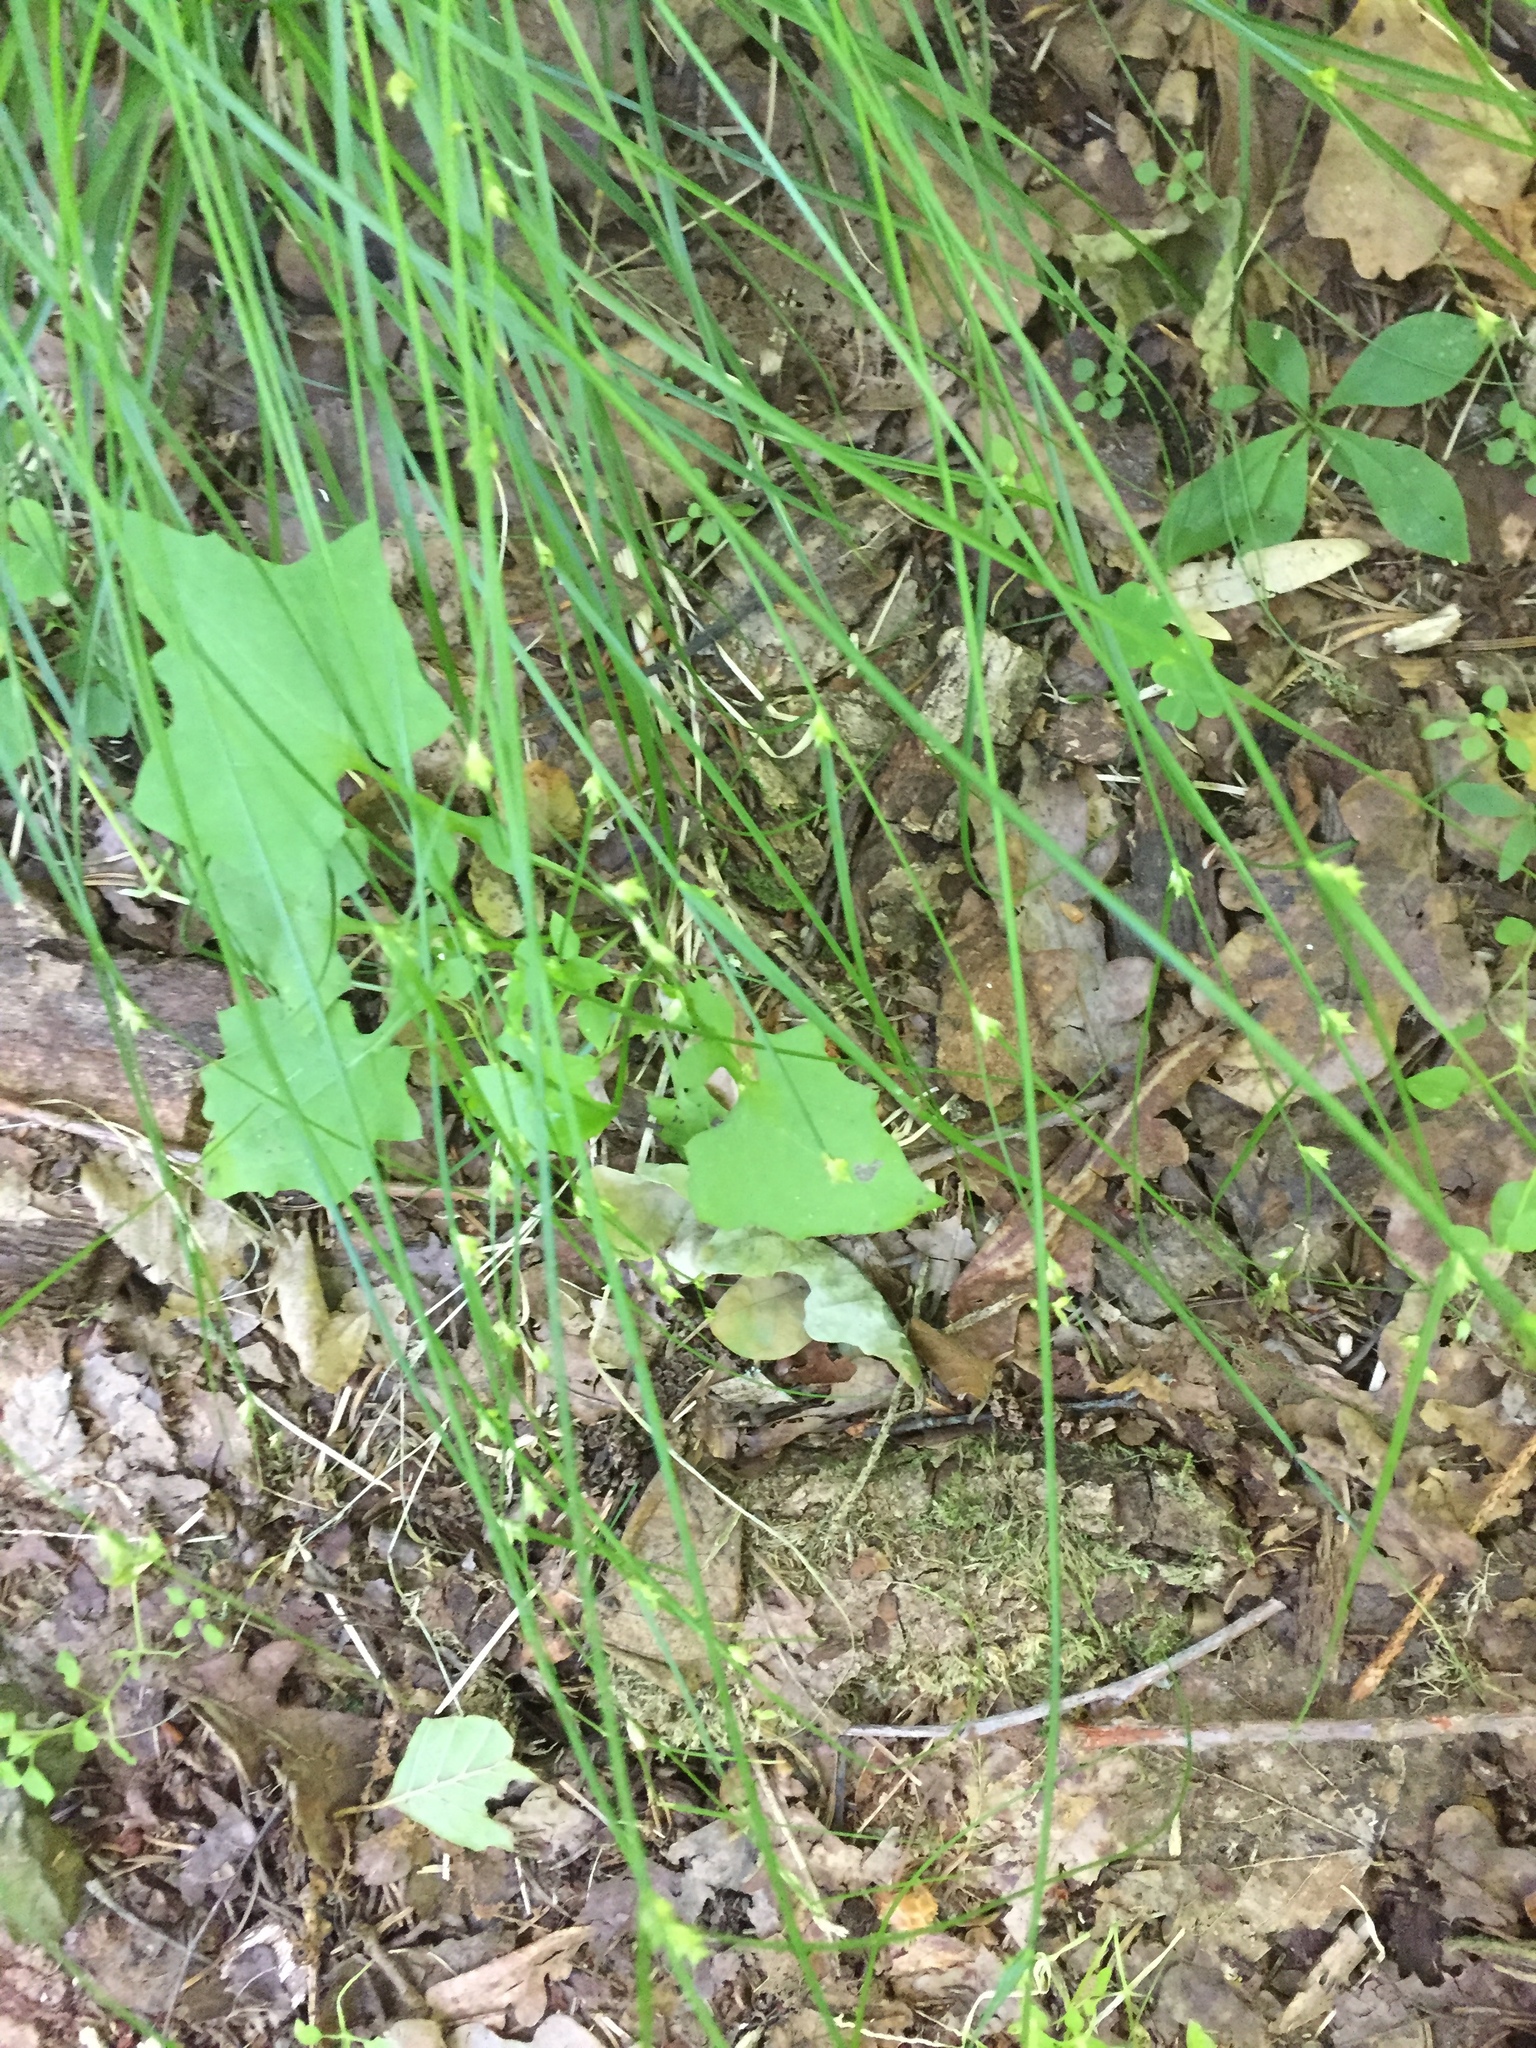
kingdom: Plantae
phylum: Tracheophyta
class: Magnoliopsida
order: Asterales
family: Asteraceae
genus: Mycelis
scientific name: Mycelis muralis
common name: Wall lettuce
